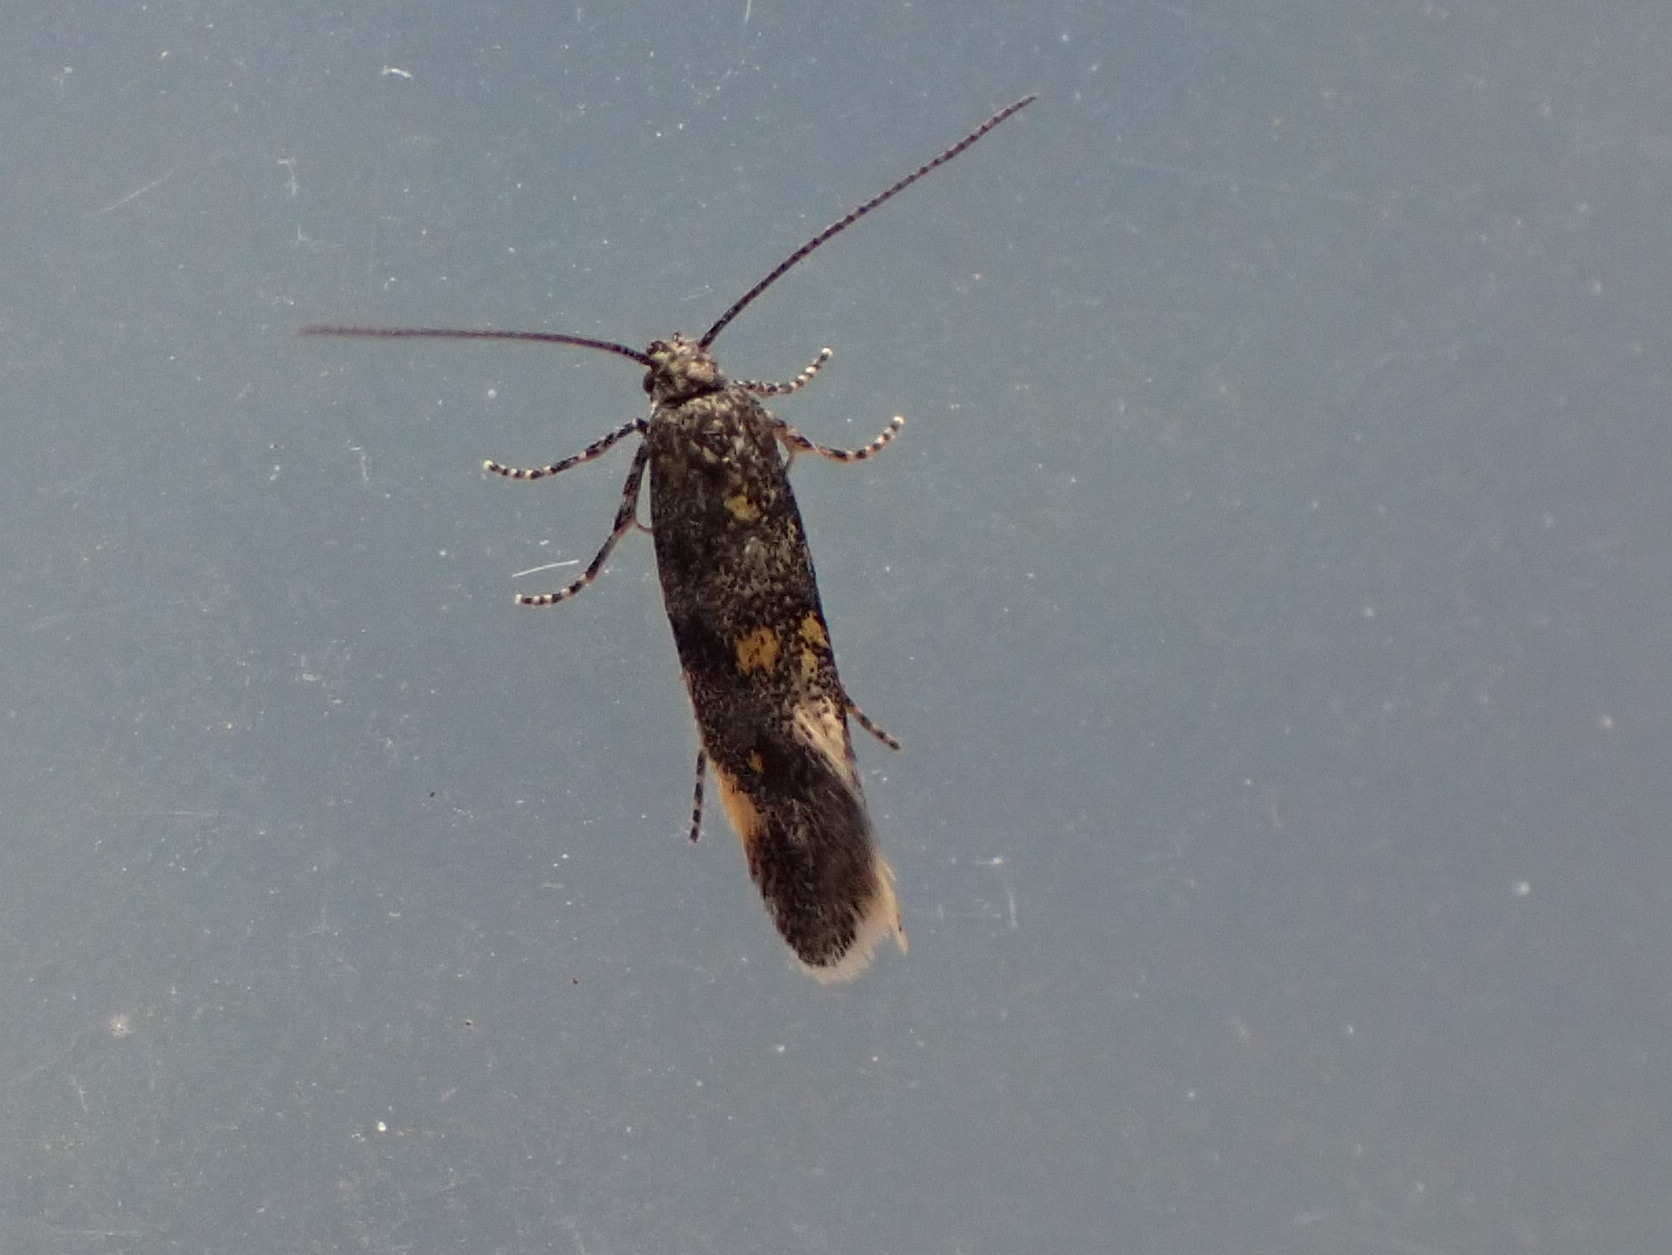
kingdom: Animalia
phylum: Arthropoda
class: Insecta
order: Lepidoptera
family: Gelechiidae
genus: Chrysoesthia
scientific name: Chrysoesthia sexguttella
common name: Moth
